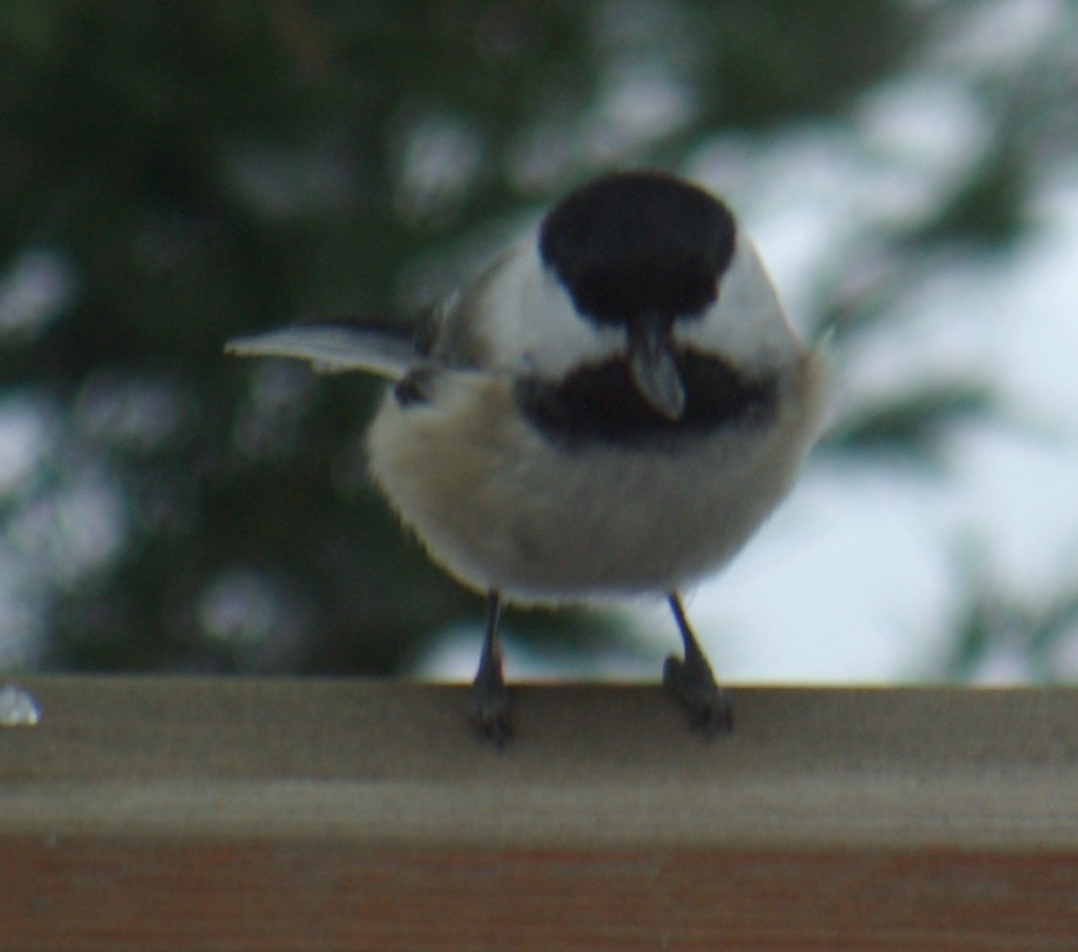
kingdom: Animalia
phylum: Chordata
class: Aves
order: Passeriformes
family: Paridae
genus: Poecile
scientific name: Poecile atricapillus
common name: Black-capped chickadee
